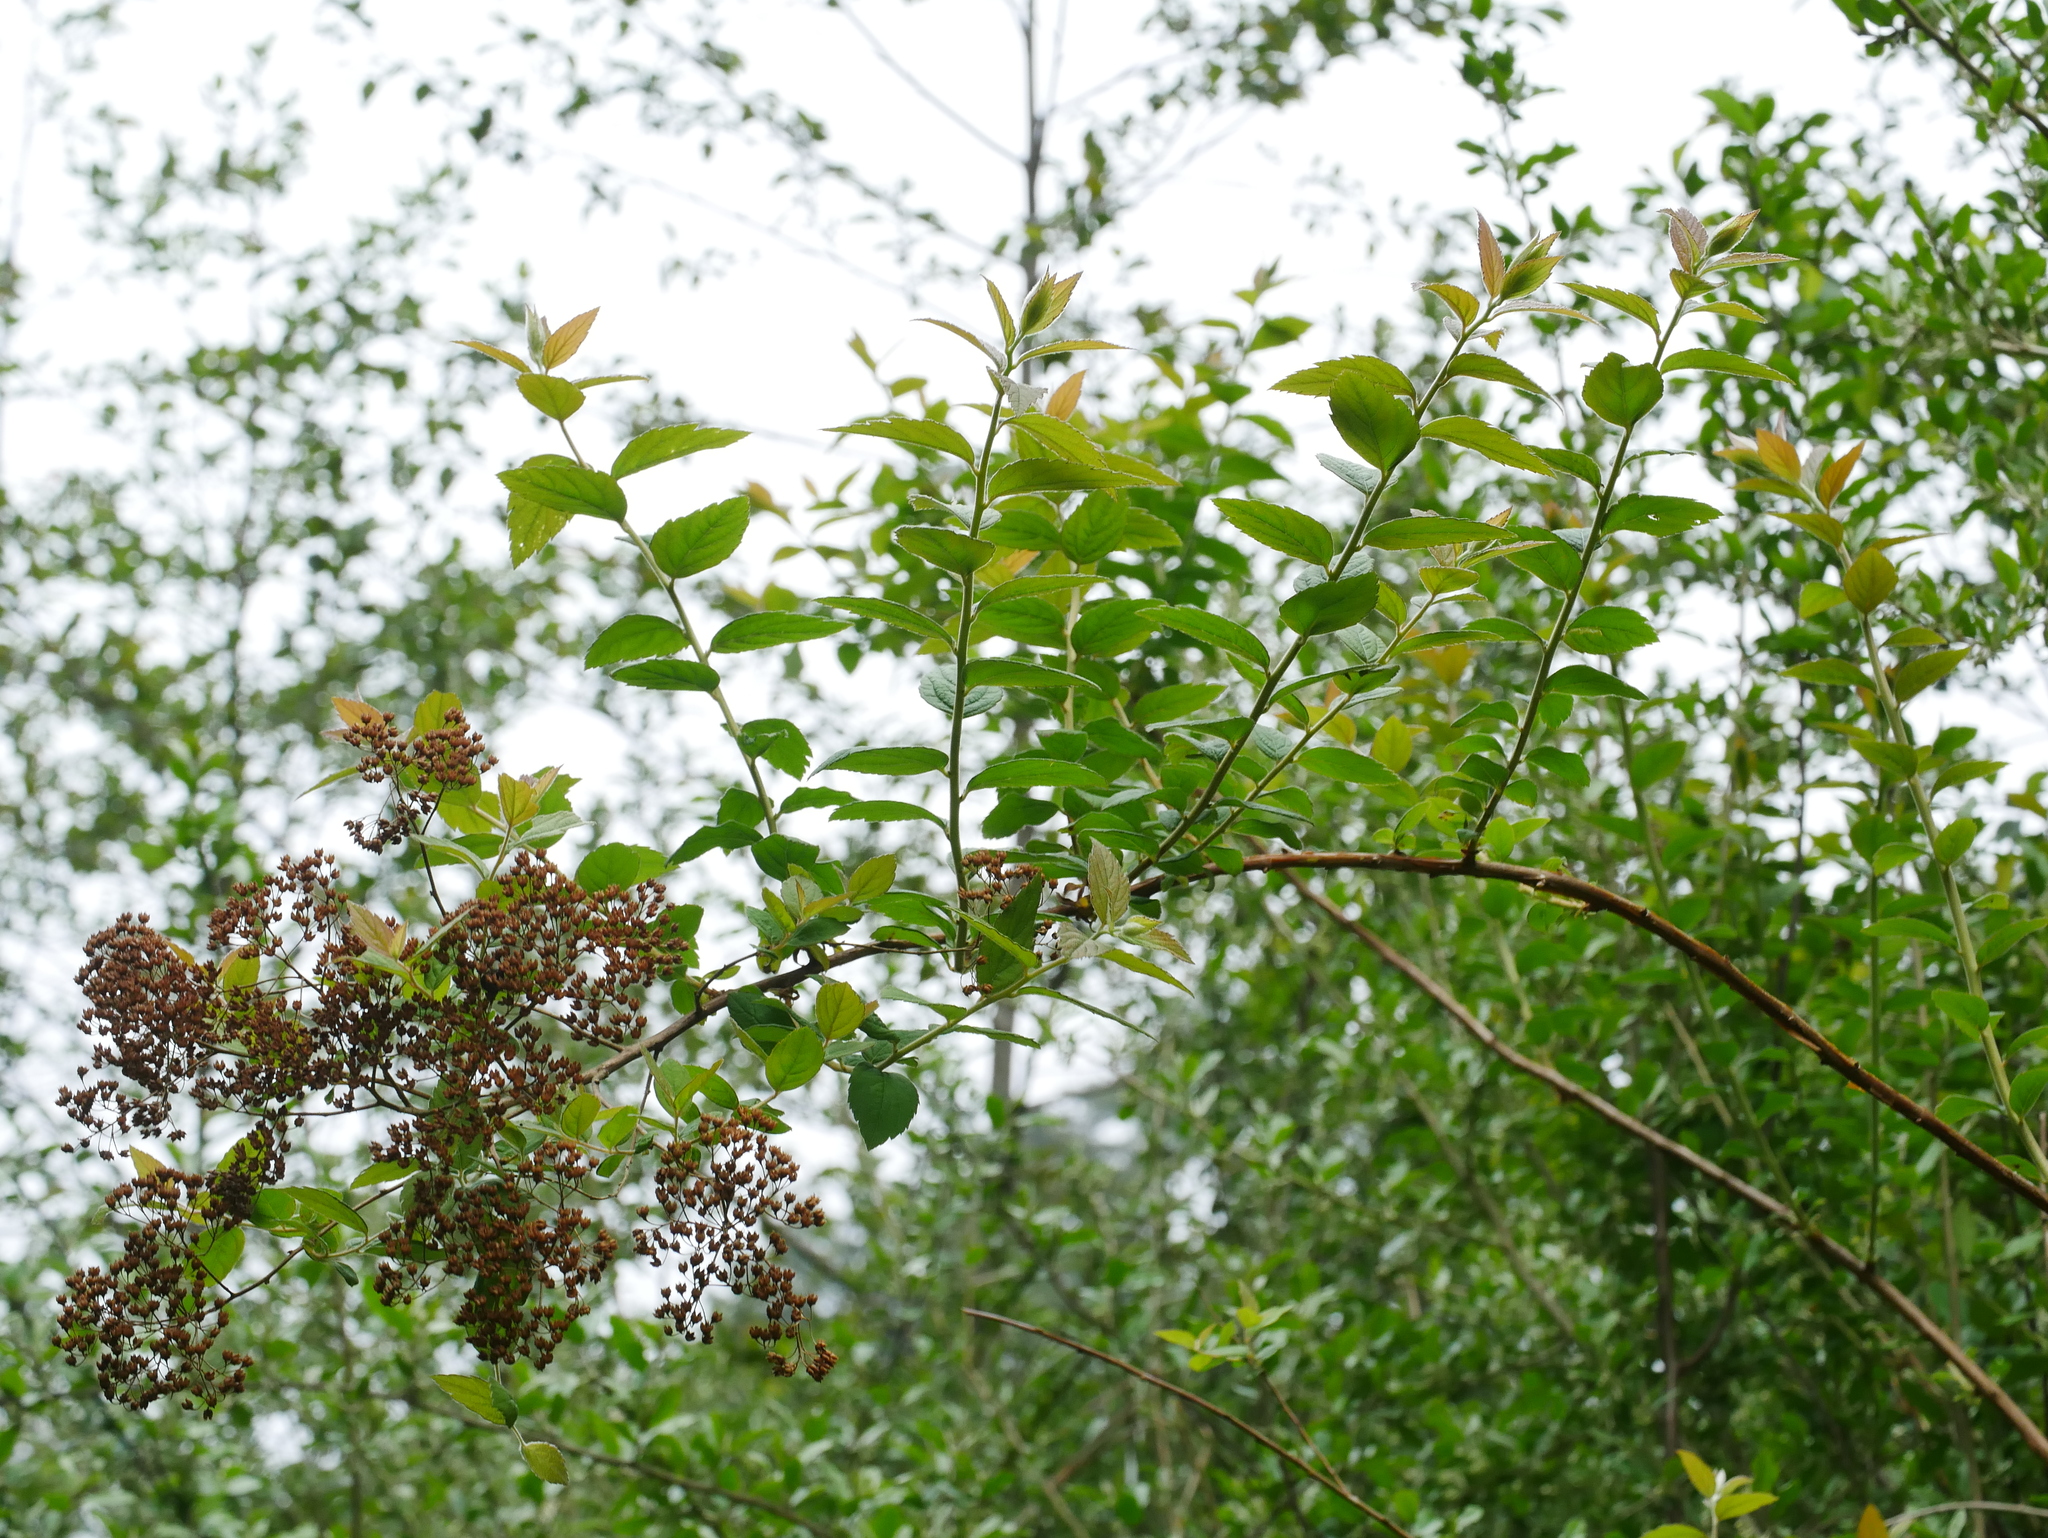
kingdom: Plantae
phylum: Tracheophyta
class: Magnoliopsida
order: Rosales
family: Rosaceae
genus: Spiraea
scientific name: Spiraea japonica
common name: Japanese spiraea
